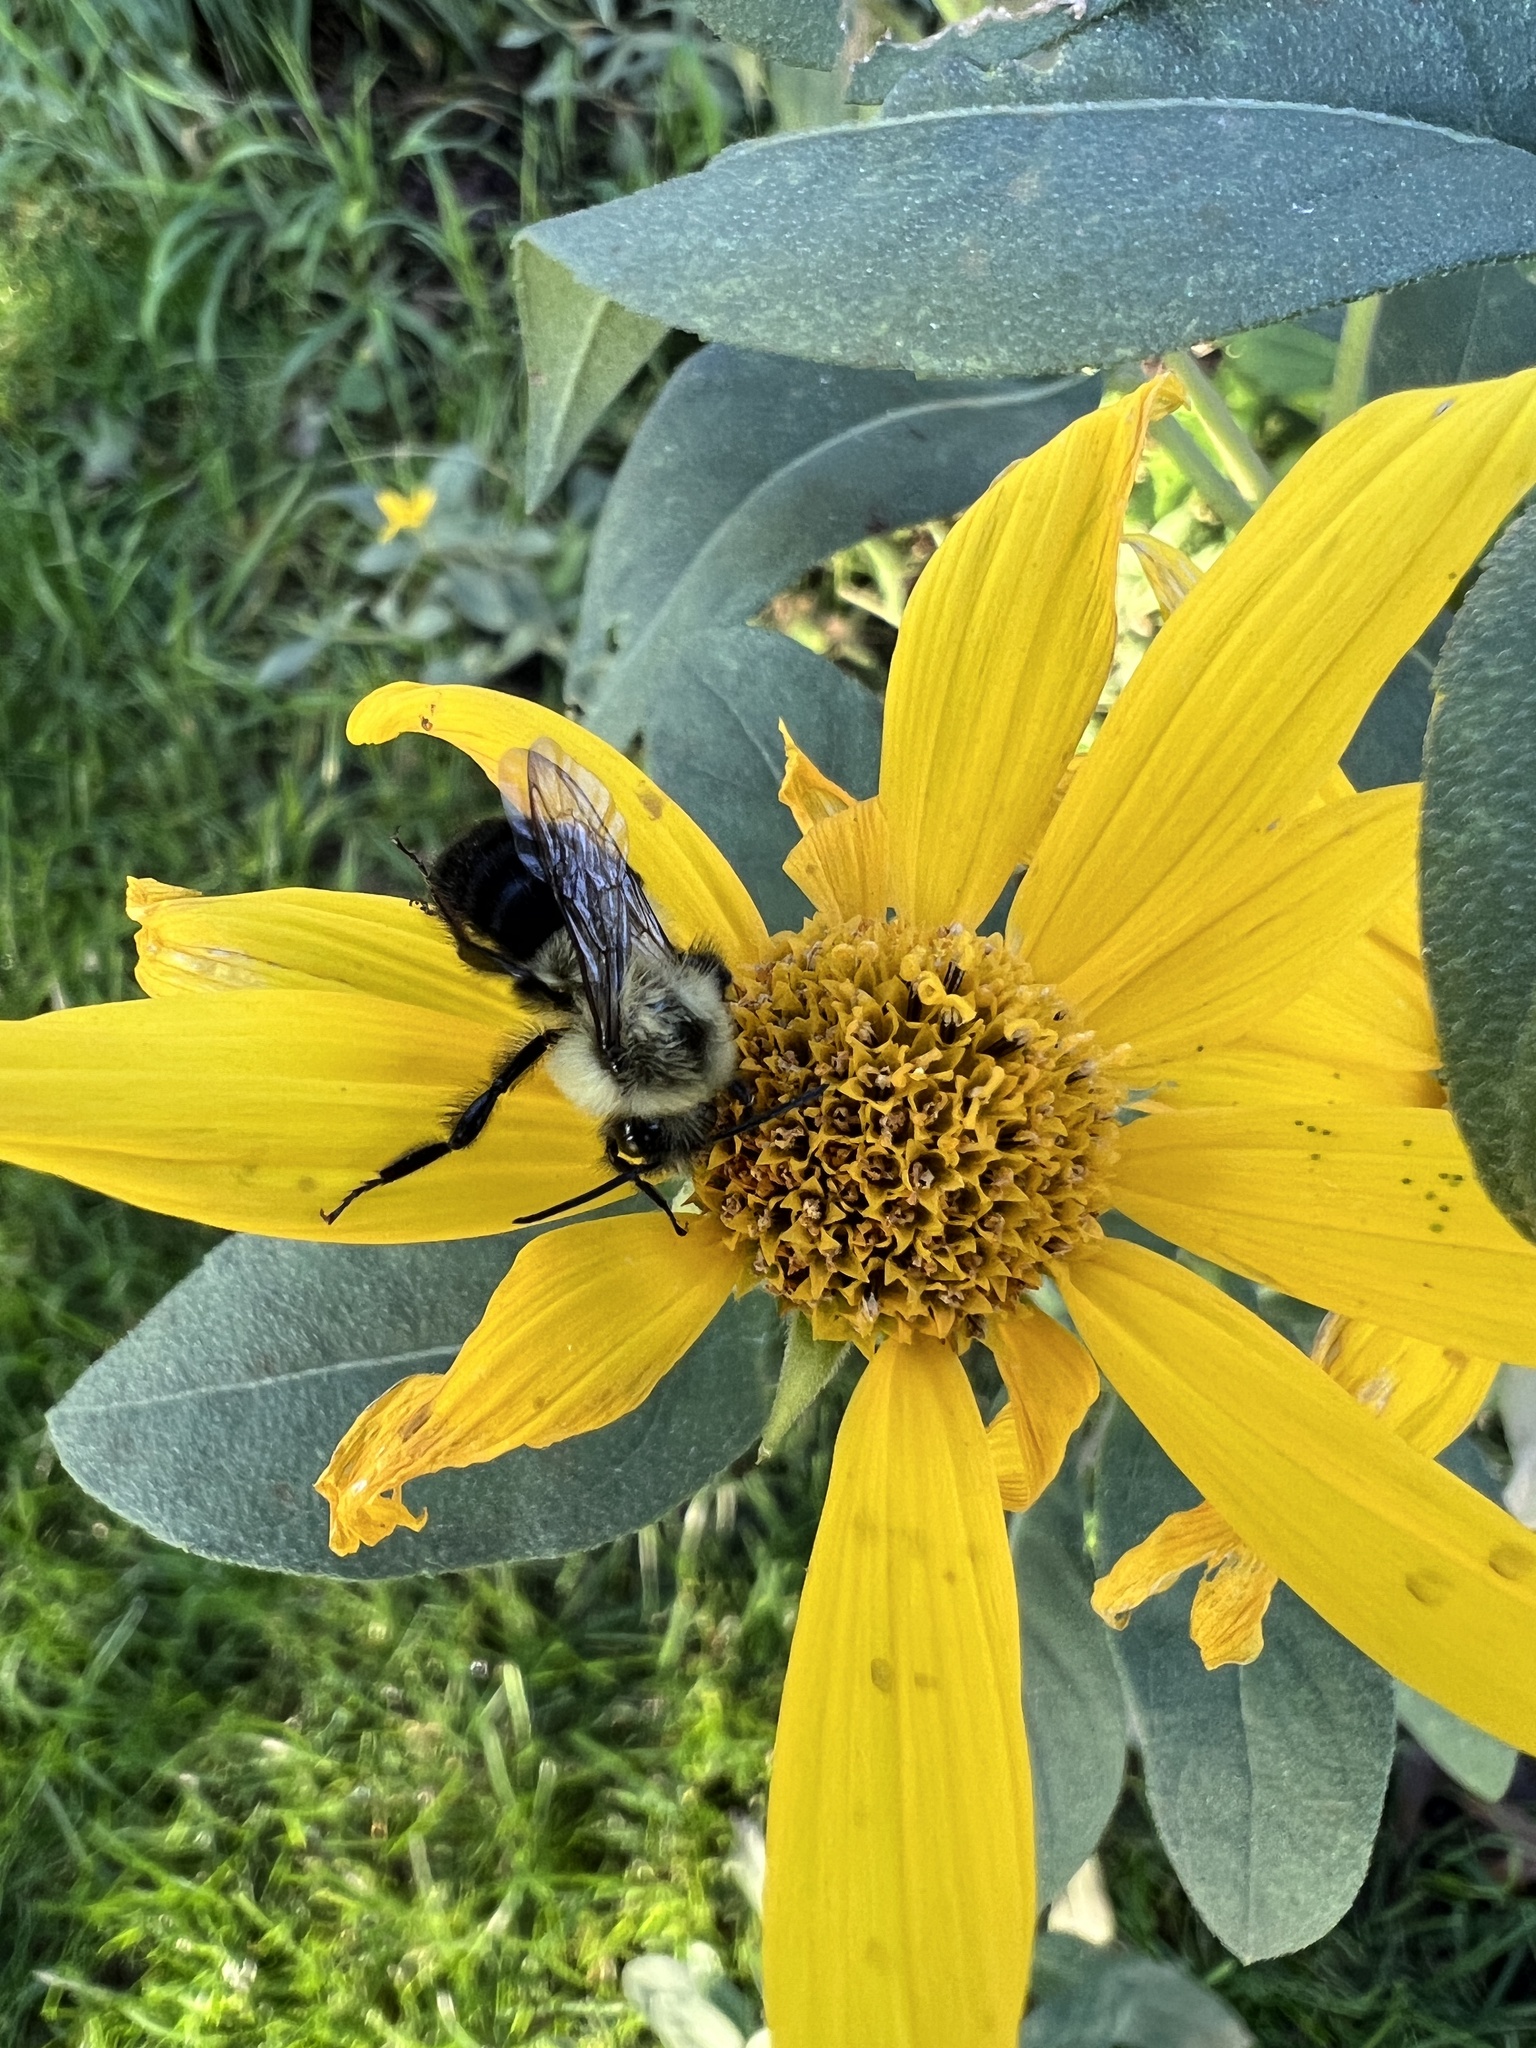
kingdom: Animalia
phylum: Arthropoda
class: Insecta
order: Hymenoptera
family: Apidae
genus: Bombus
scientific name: Bombus impatiens
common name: Common eastern bumble bee
